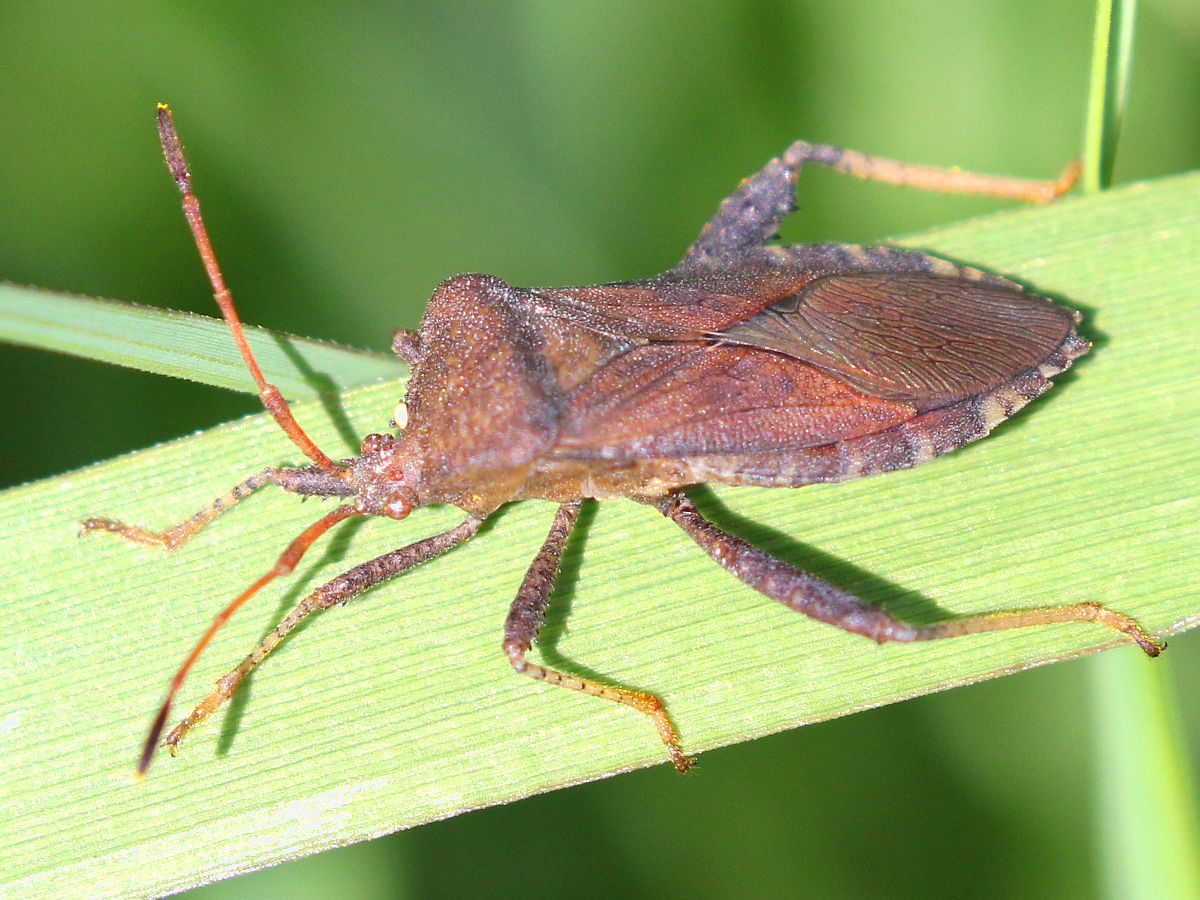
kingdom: Animalia
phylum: Arthropoda
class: Insecta
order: Hemiptera
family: Coreidae
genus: Euthochtha
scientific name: Euthochtha galeator
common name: Helmeted squash bug
